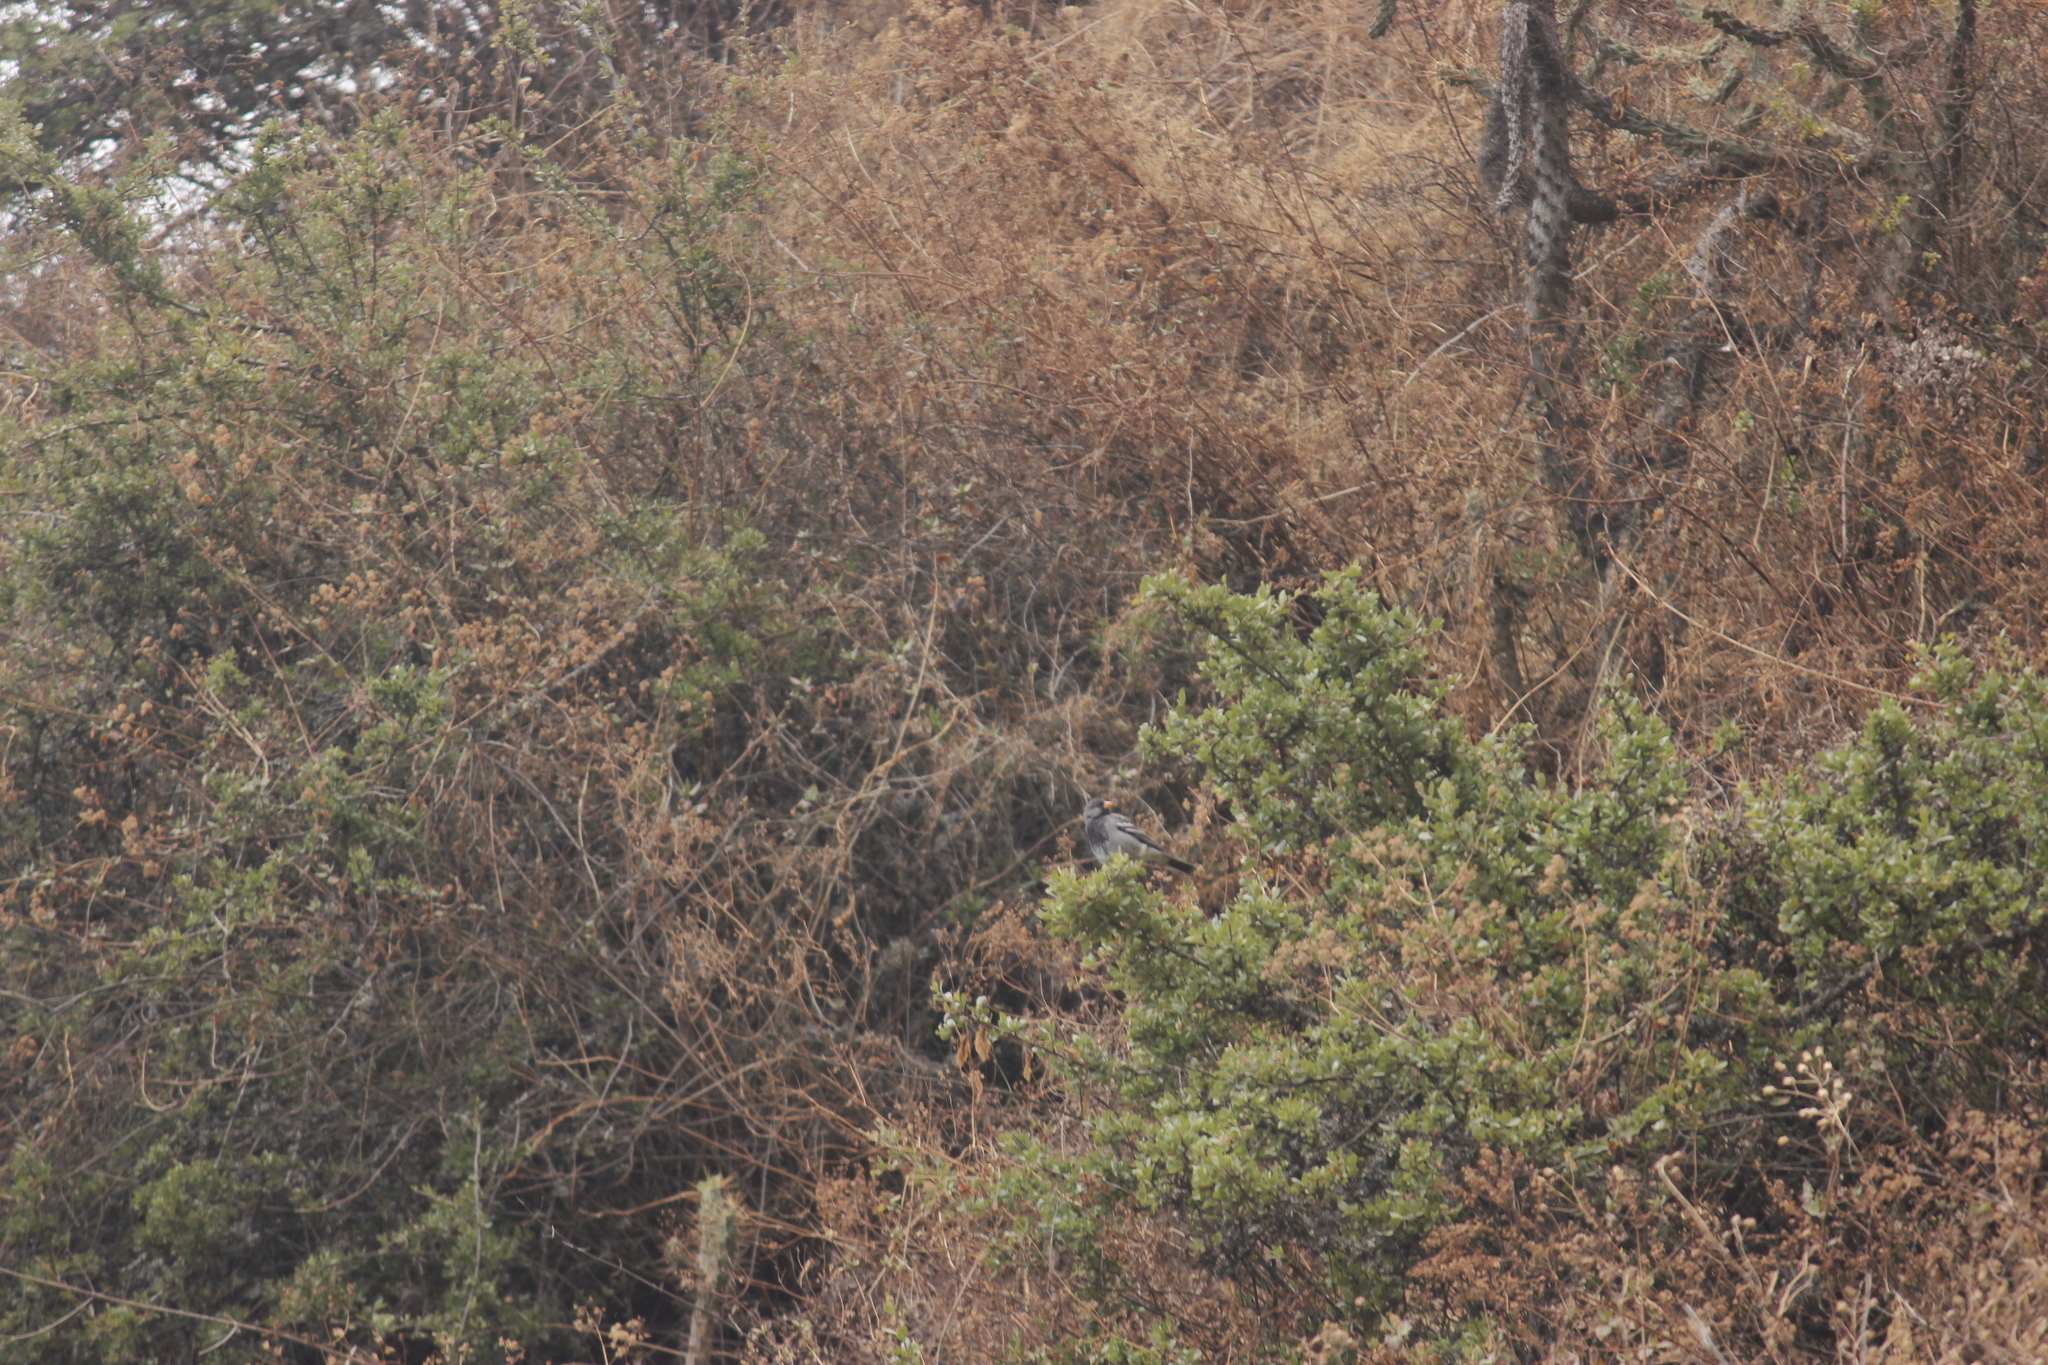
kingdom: Animalia
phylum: Chordata
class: Aves
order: Passeriformes
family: Thraupidae
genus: Rhopospina
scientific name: Rhopospina fruticeti
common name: Mourning sierra finch
